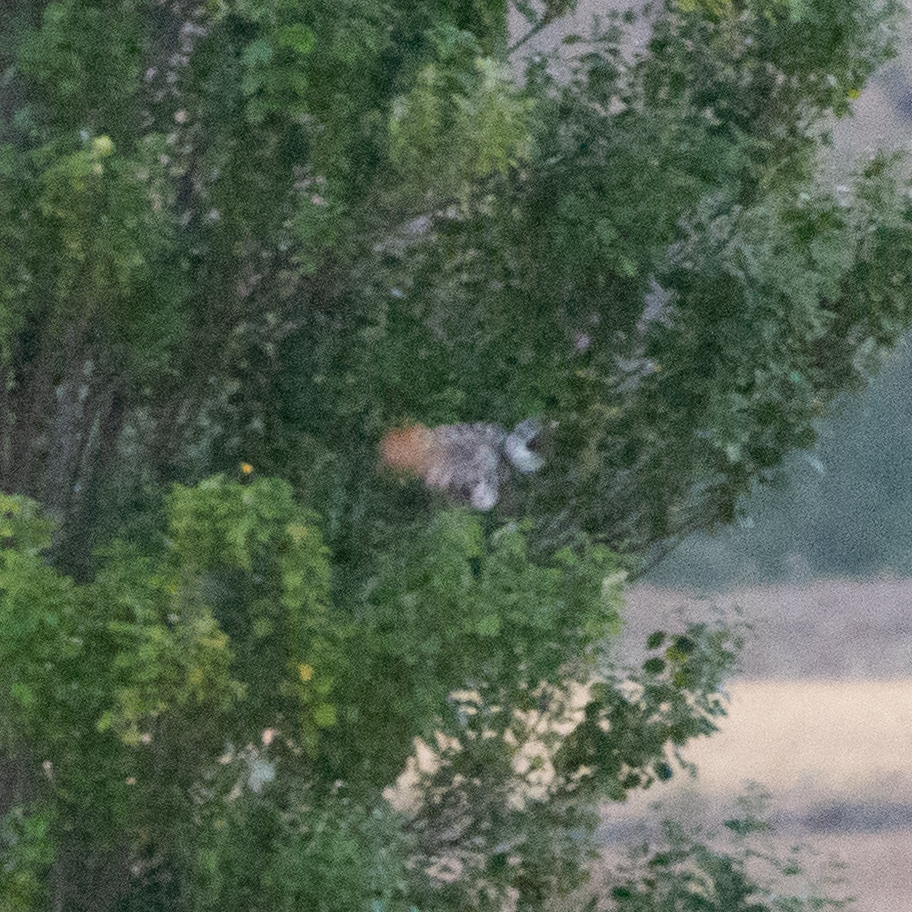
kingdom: Animalia
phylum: Chordata
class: Aves
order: Bucerotiformes
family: Upupidae
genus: Upupa
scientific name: Upupa epops
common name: Eurasian hoopoe
